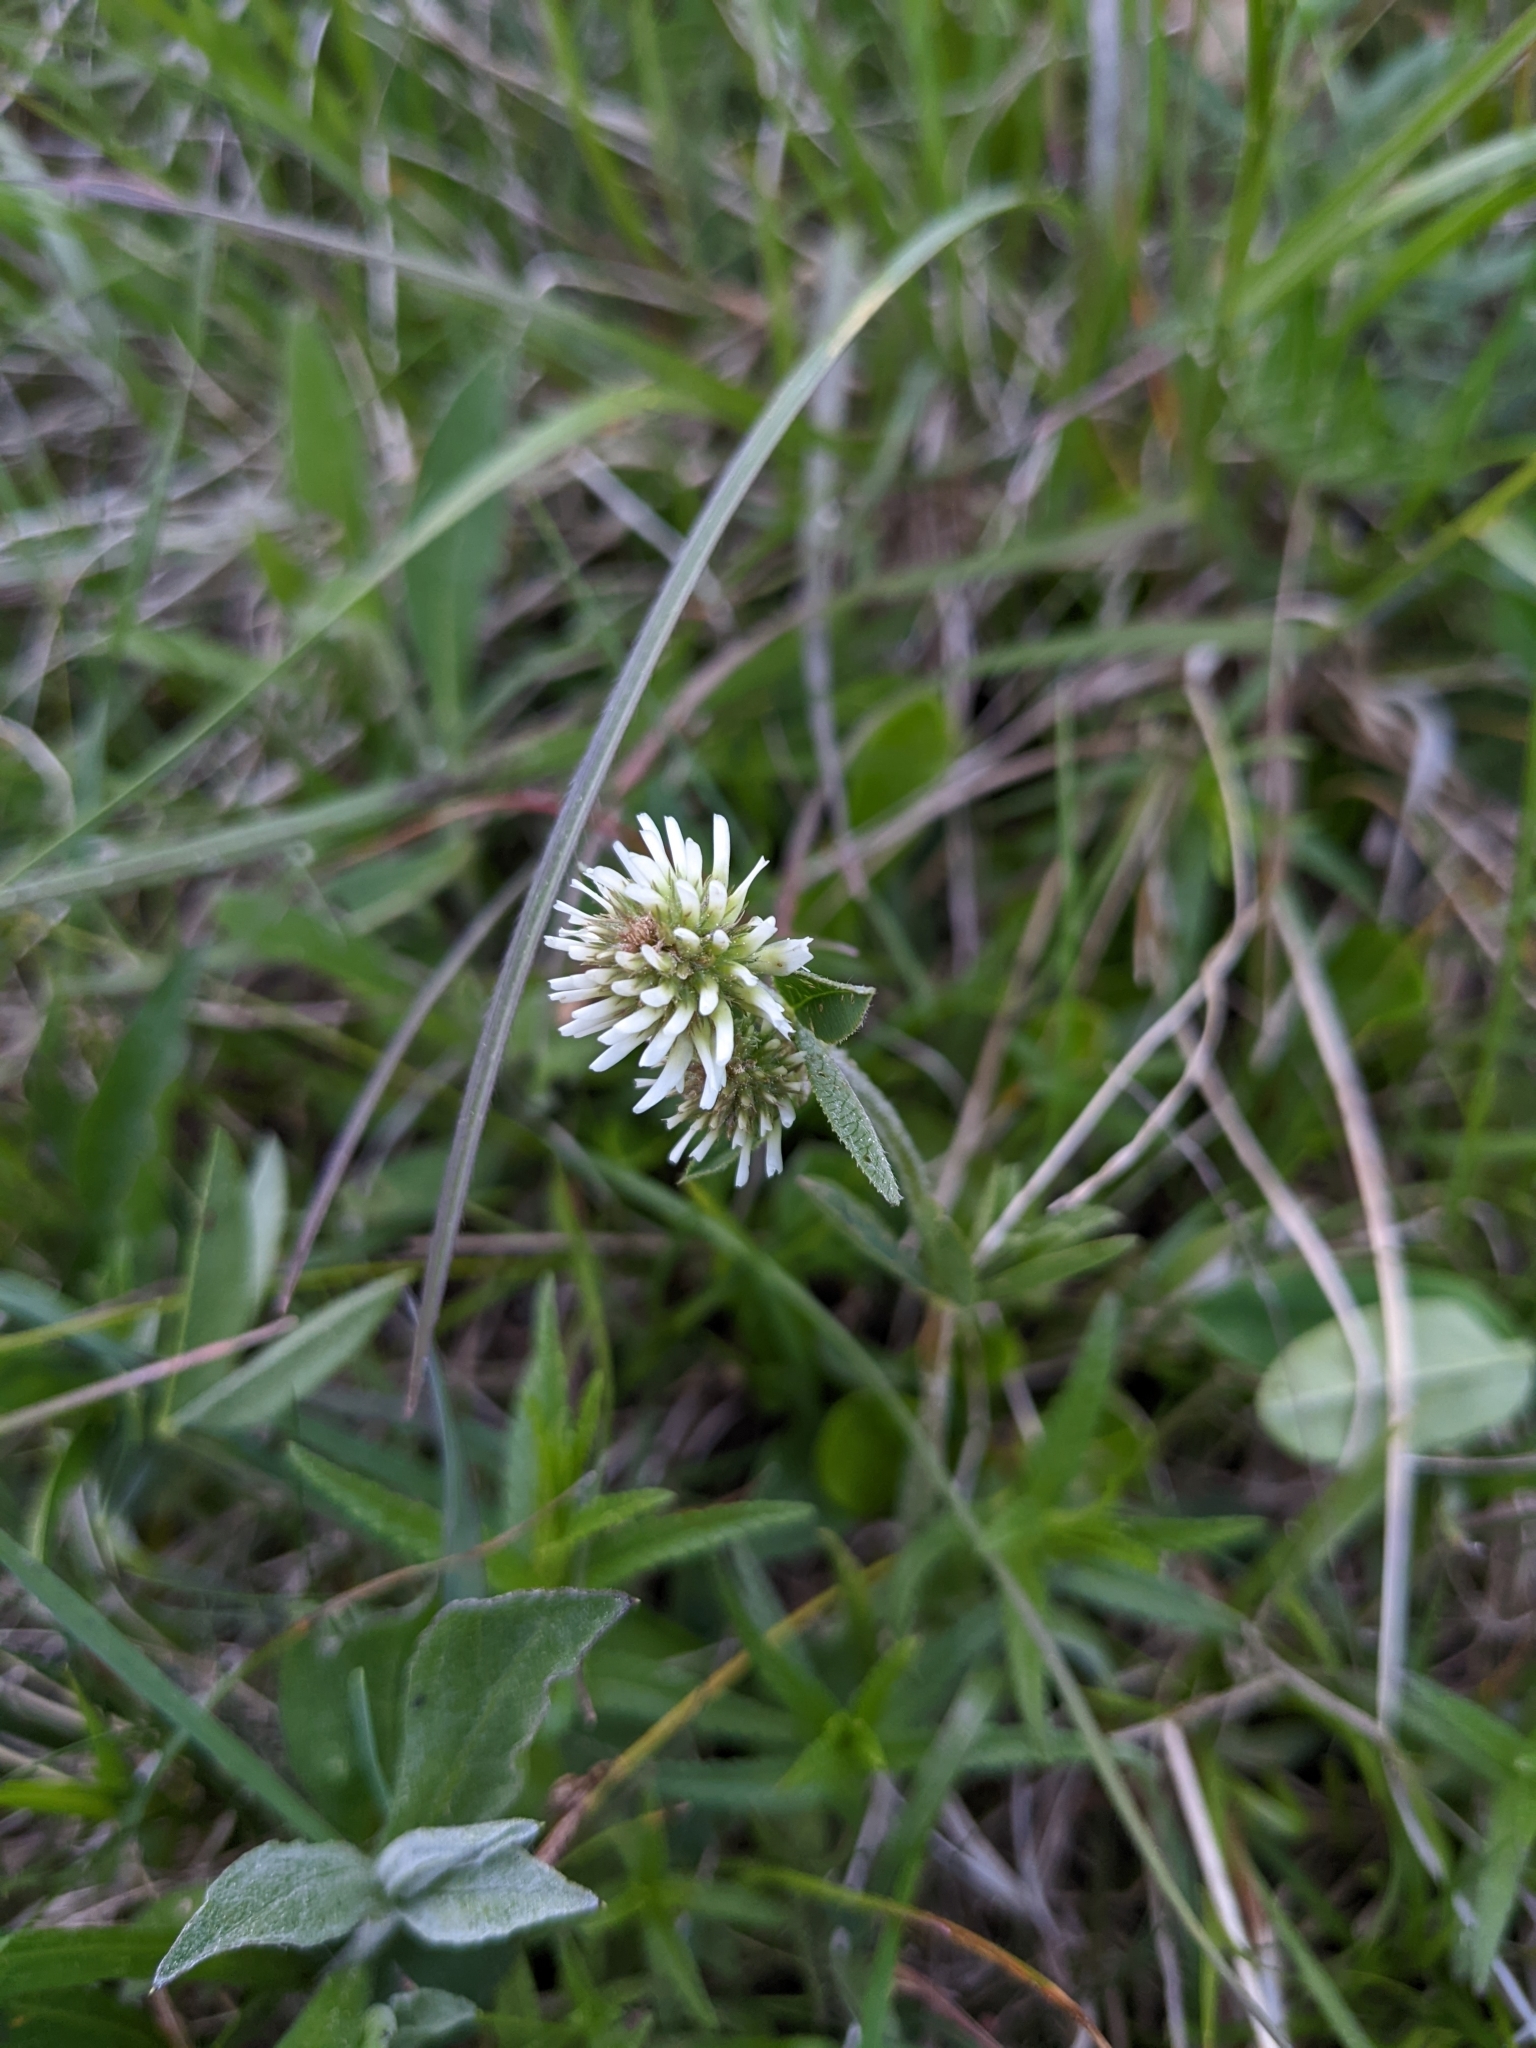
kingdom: Plantae
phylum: Tracheophyta
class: Magnoliopsida
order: Fabales
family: Fabaceae
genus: Trifolium
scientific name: Trifolium montanum
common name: Mountain clover
